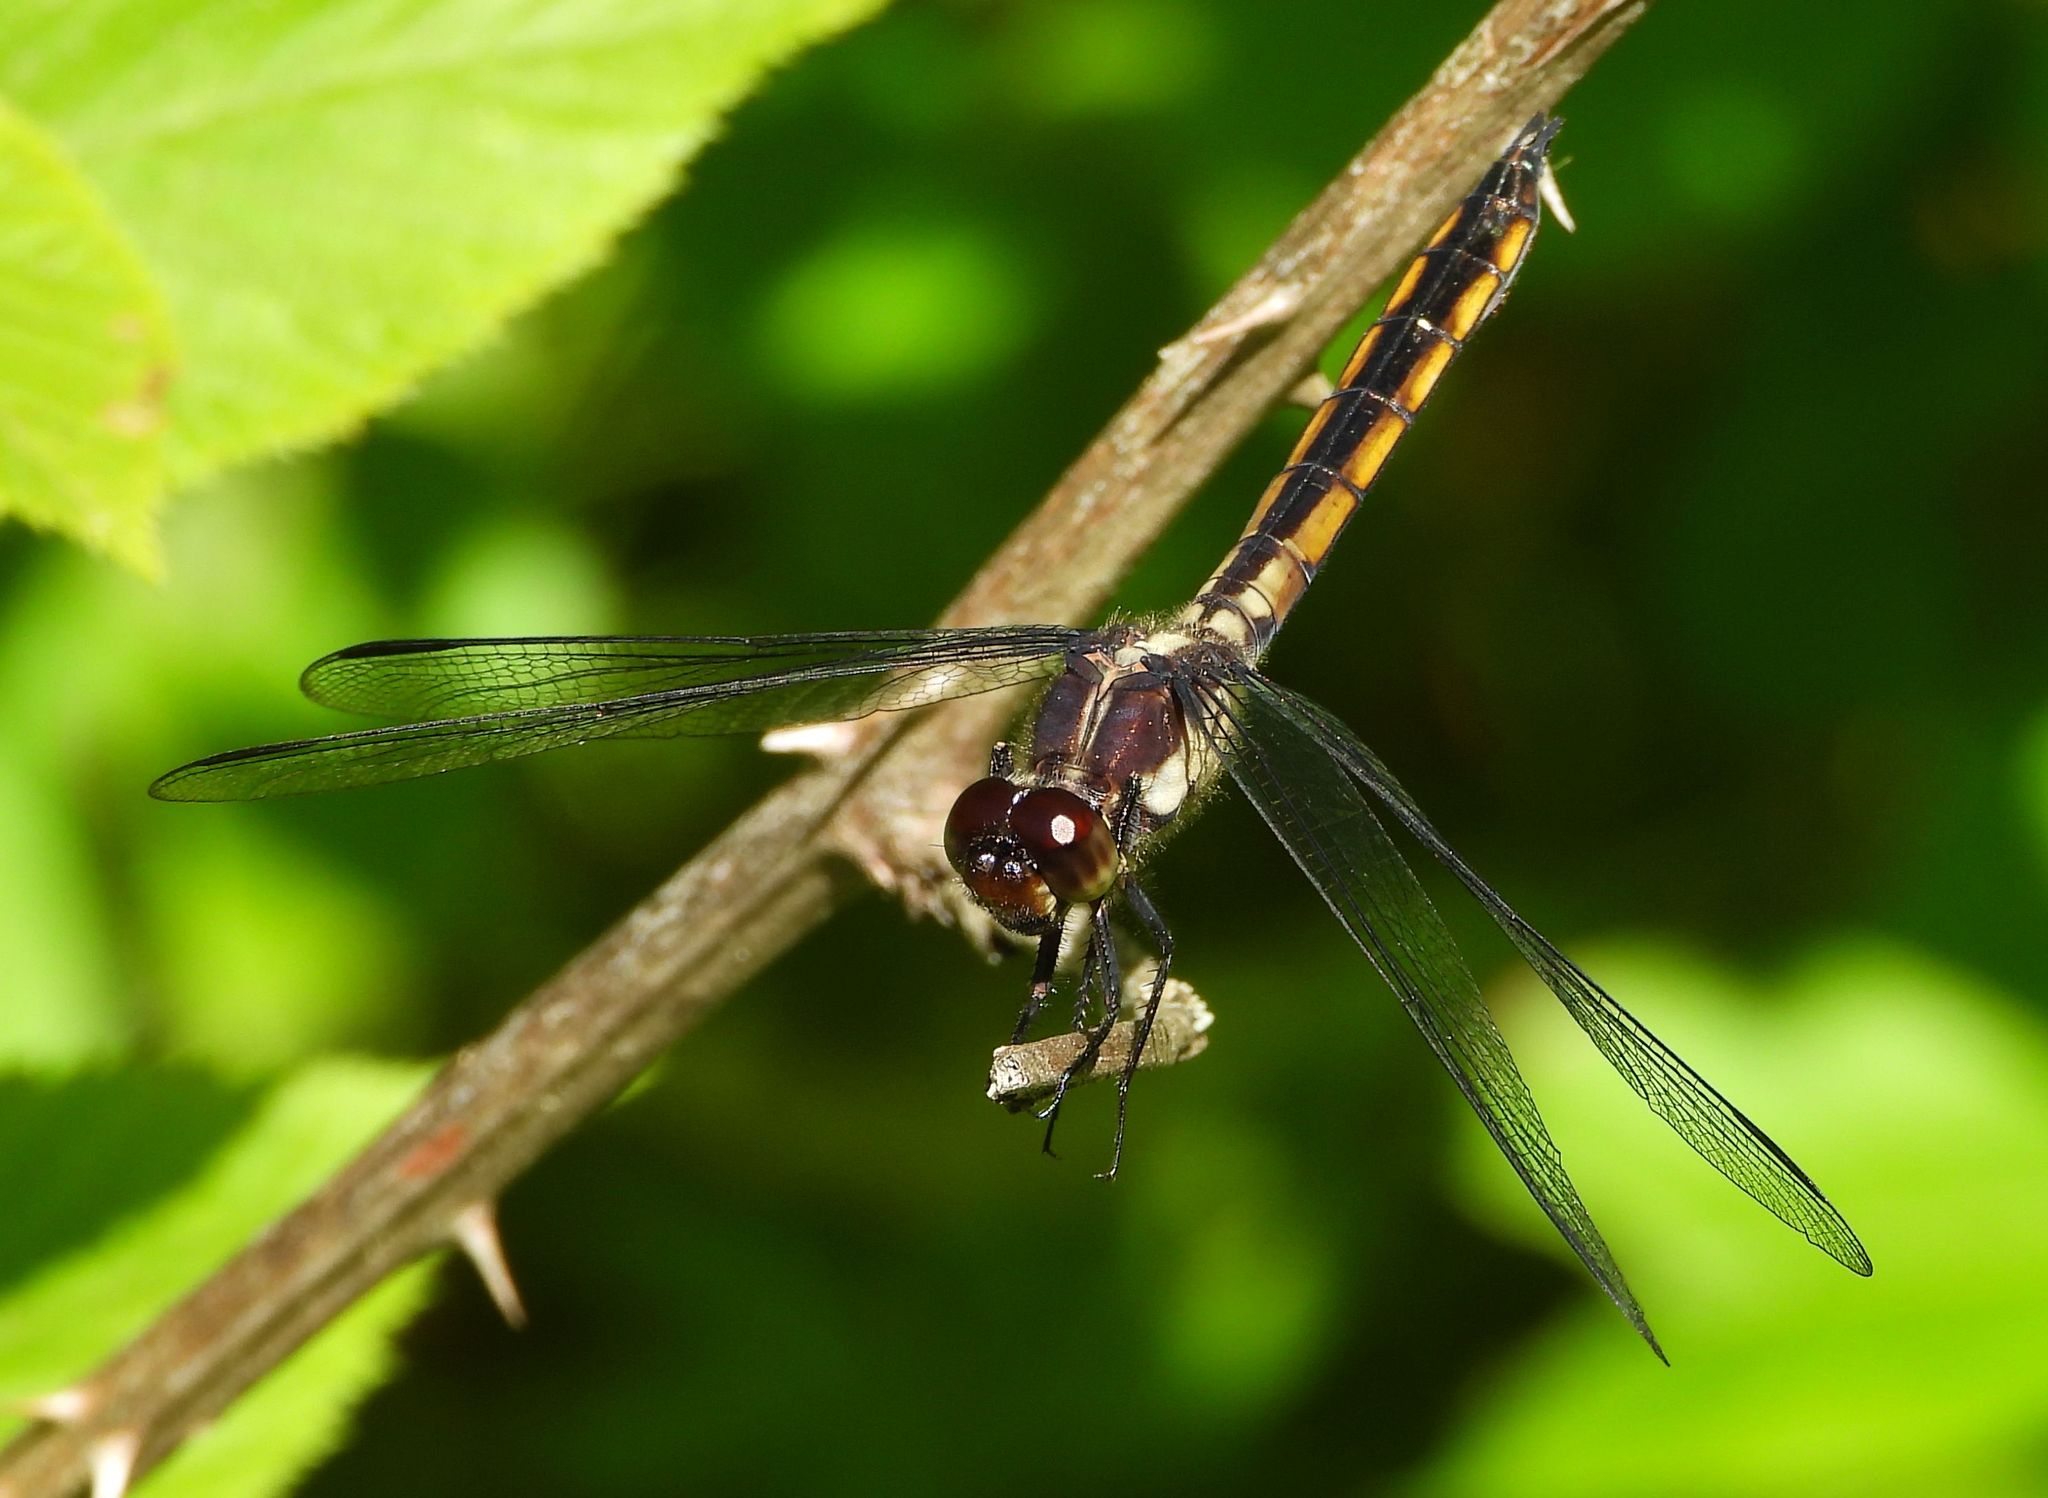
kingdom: Animalia
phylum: Arthropoda
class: Insecta
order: Odonata
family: Libellulidae
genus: Libellula
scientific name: Libellula incesta
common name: Slaty skimmer
